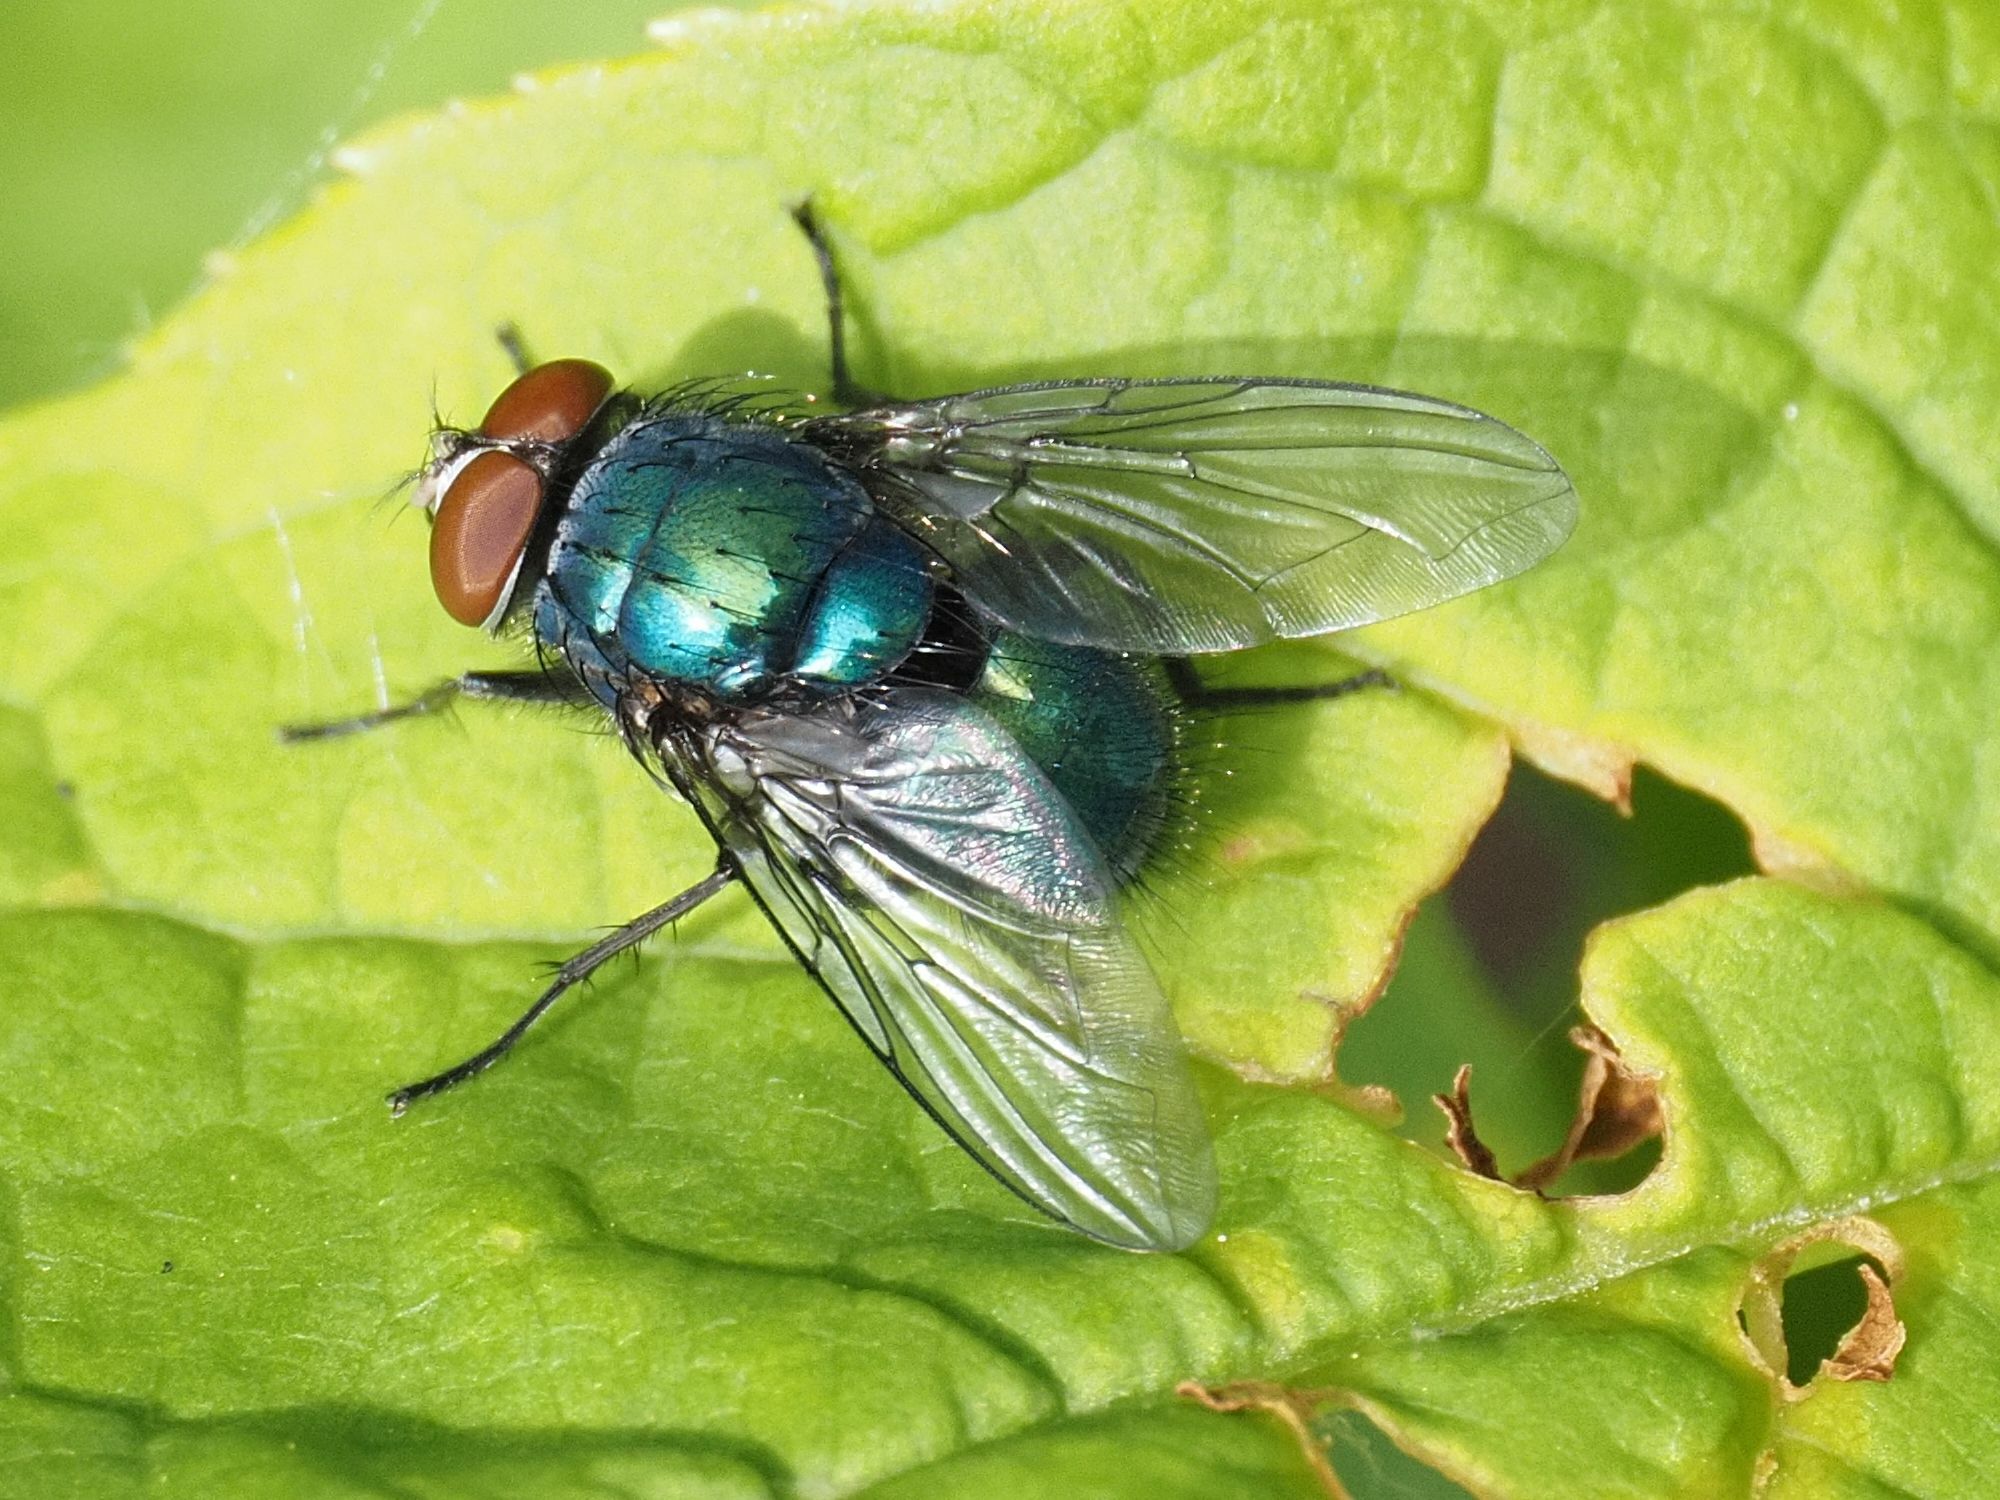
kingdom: Animalia
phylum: Arthropoda
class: Insecta
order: Diptera
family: Calliphoridae
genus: Lucilia
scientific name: Lucilia
